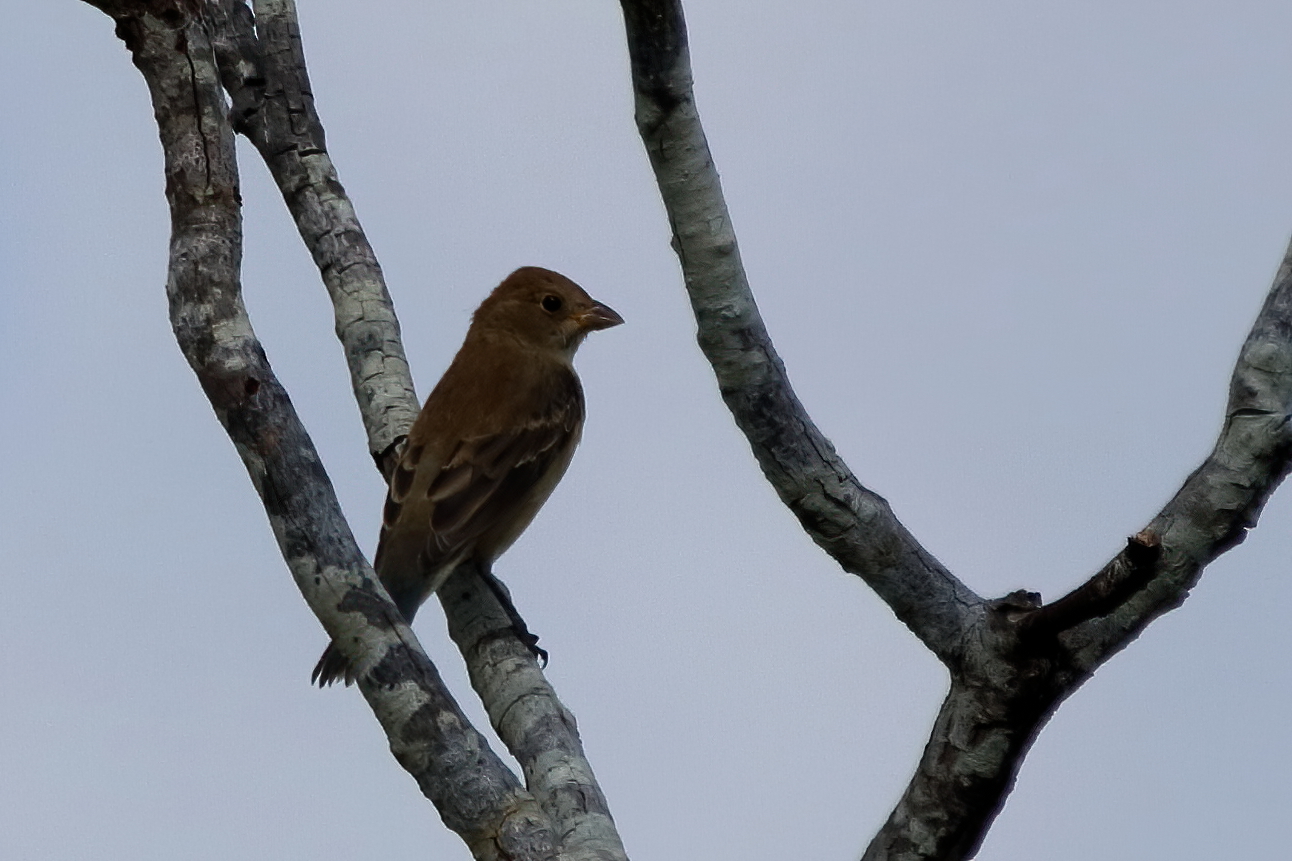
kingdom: Animalia
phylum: Chordata
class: Aves
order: Passeriformes
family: Cardinalidae
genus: Passerina
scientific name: Passerina caerulea
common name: Blue grosbeak
